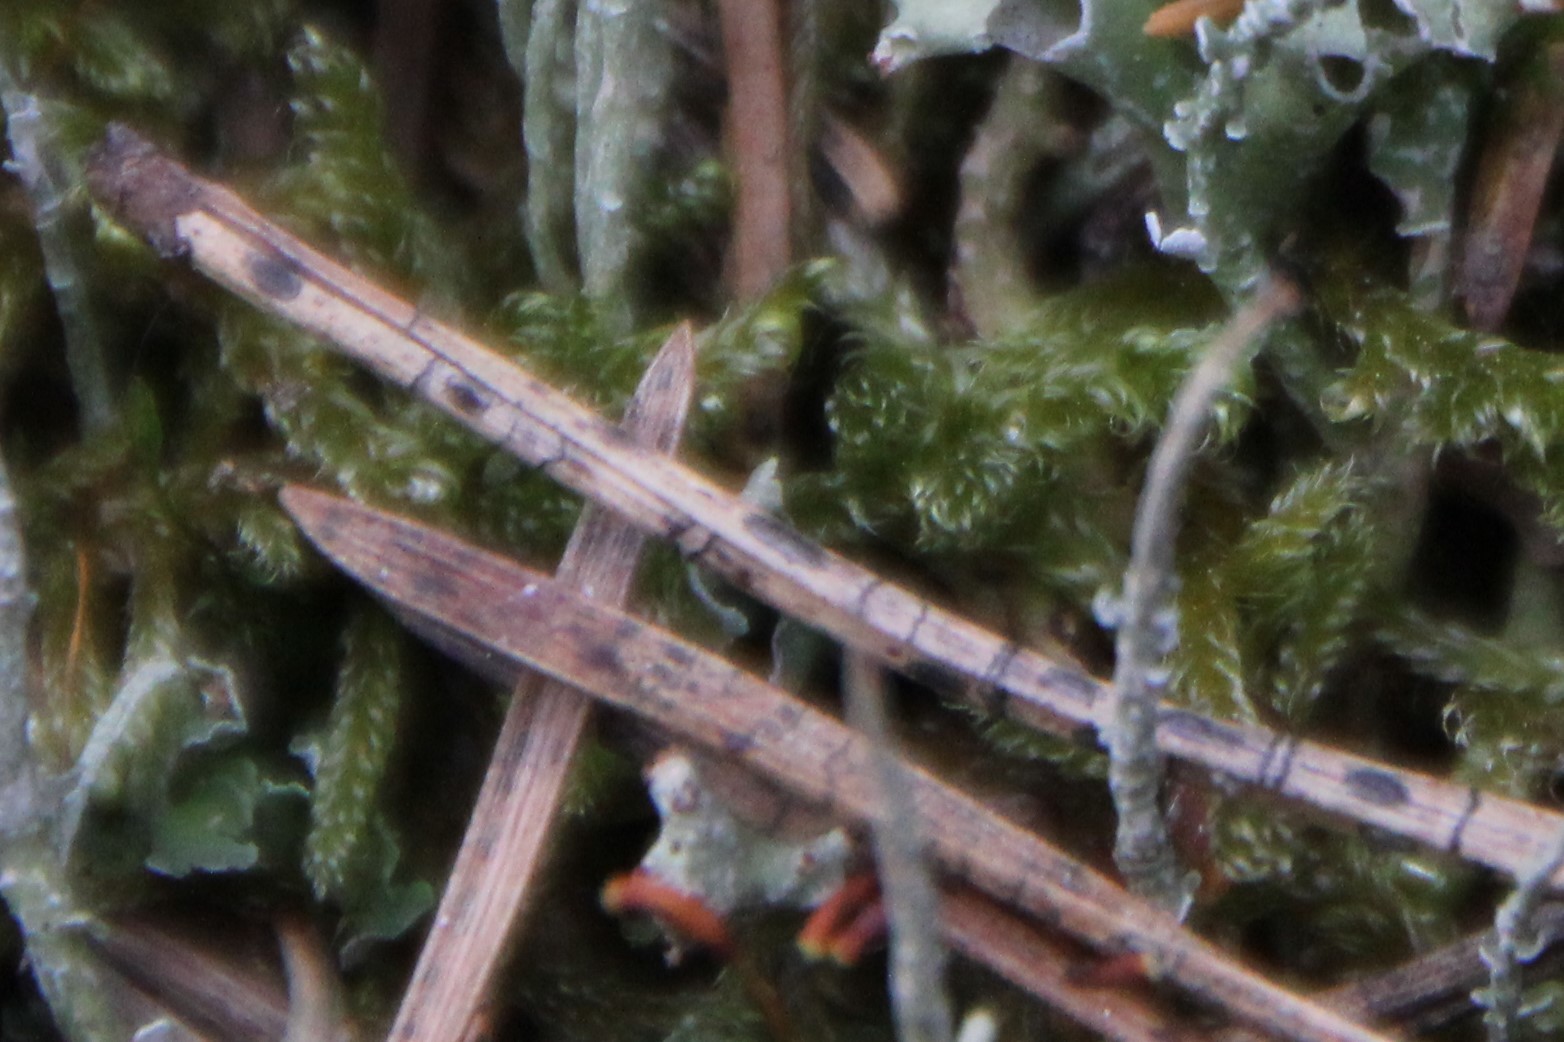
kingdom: Fungi
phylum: Ascomycota
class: Leotiomycetes
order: Rhytismatales
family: Rhytismataceae
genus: Lophodermium
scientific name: Lophodermium pinastri
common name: Pine needle split
